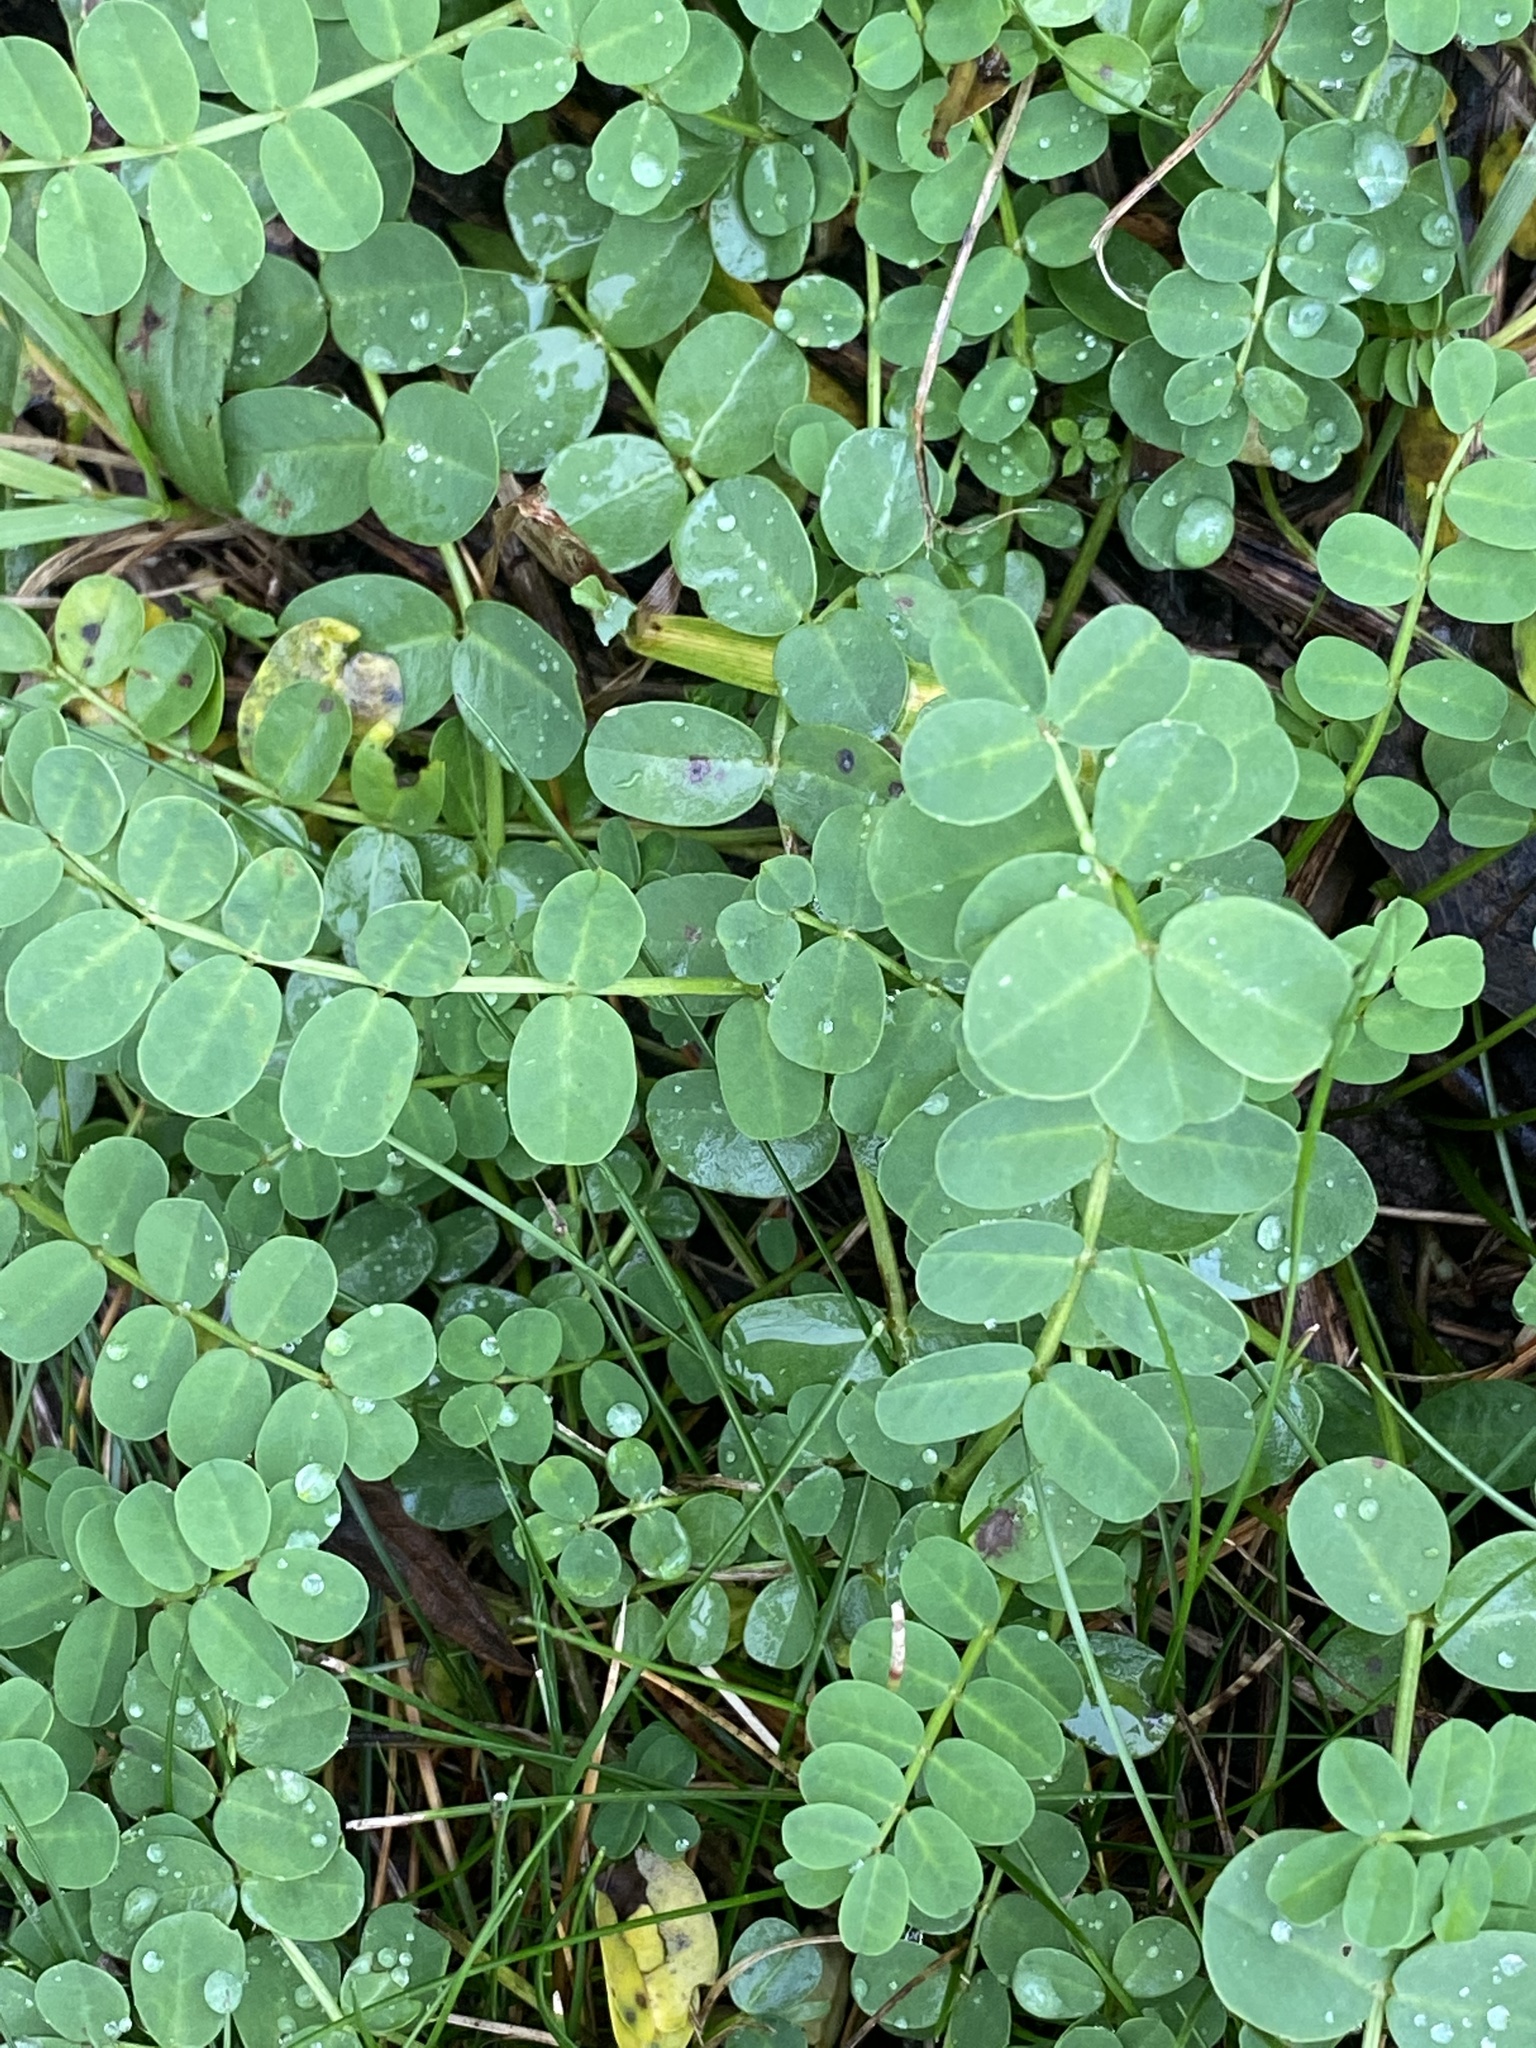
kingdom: Plantae
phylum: Tracheophyta
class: Magnoliopsida
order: Fabales
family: Fabaceae
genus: Coronilla
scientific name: Coronilla varia
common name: Crownvetch
